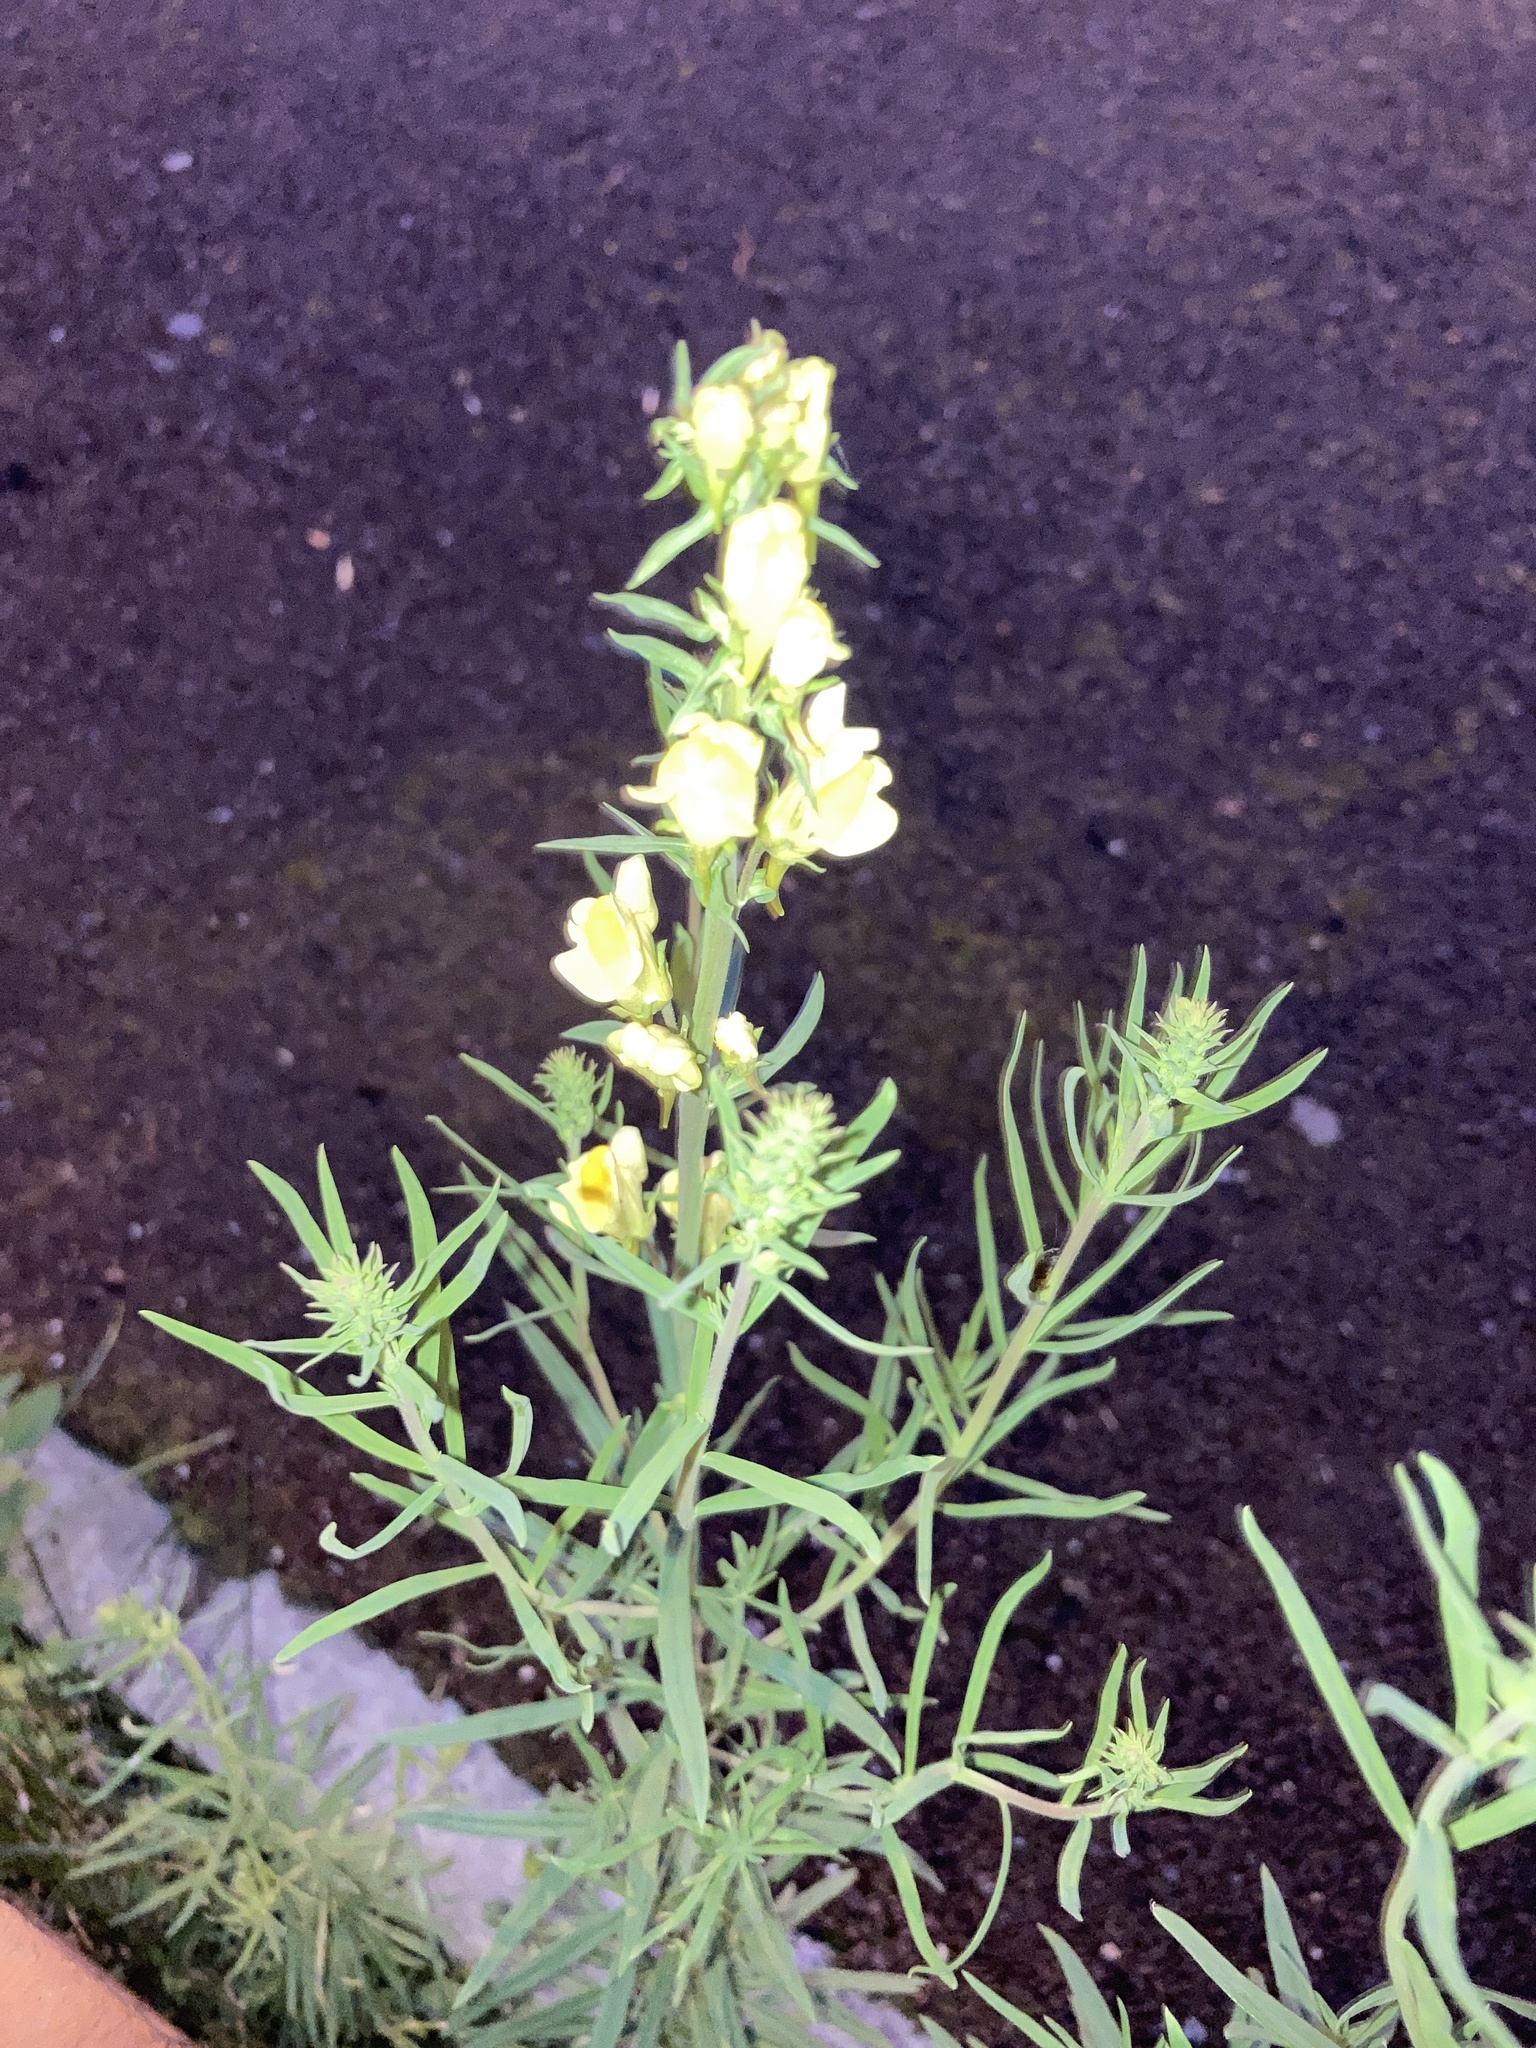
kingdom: Plantae
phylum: Tracheophyta
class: Magnoliopsida
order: Lamiales
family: Plantaginaceae
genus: Linaria
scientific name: Linaria vulgaris
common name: Butter and eggs
